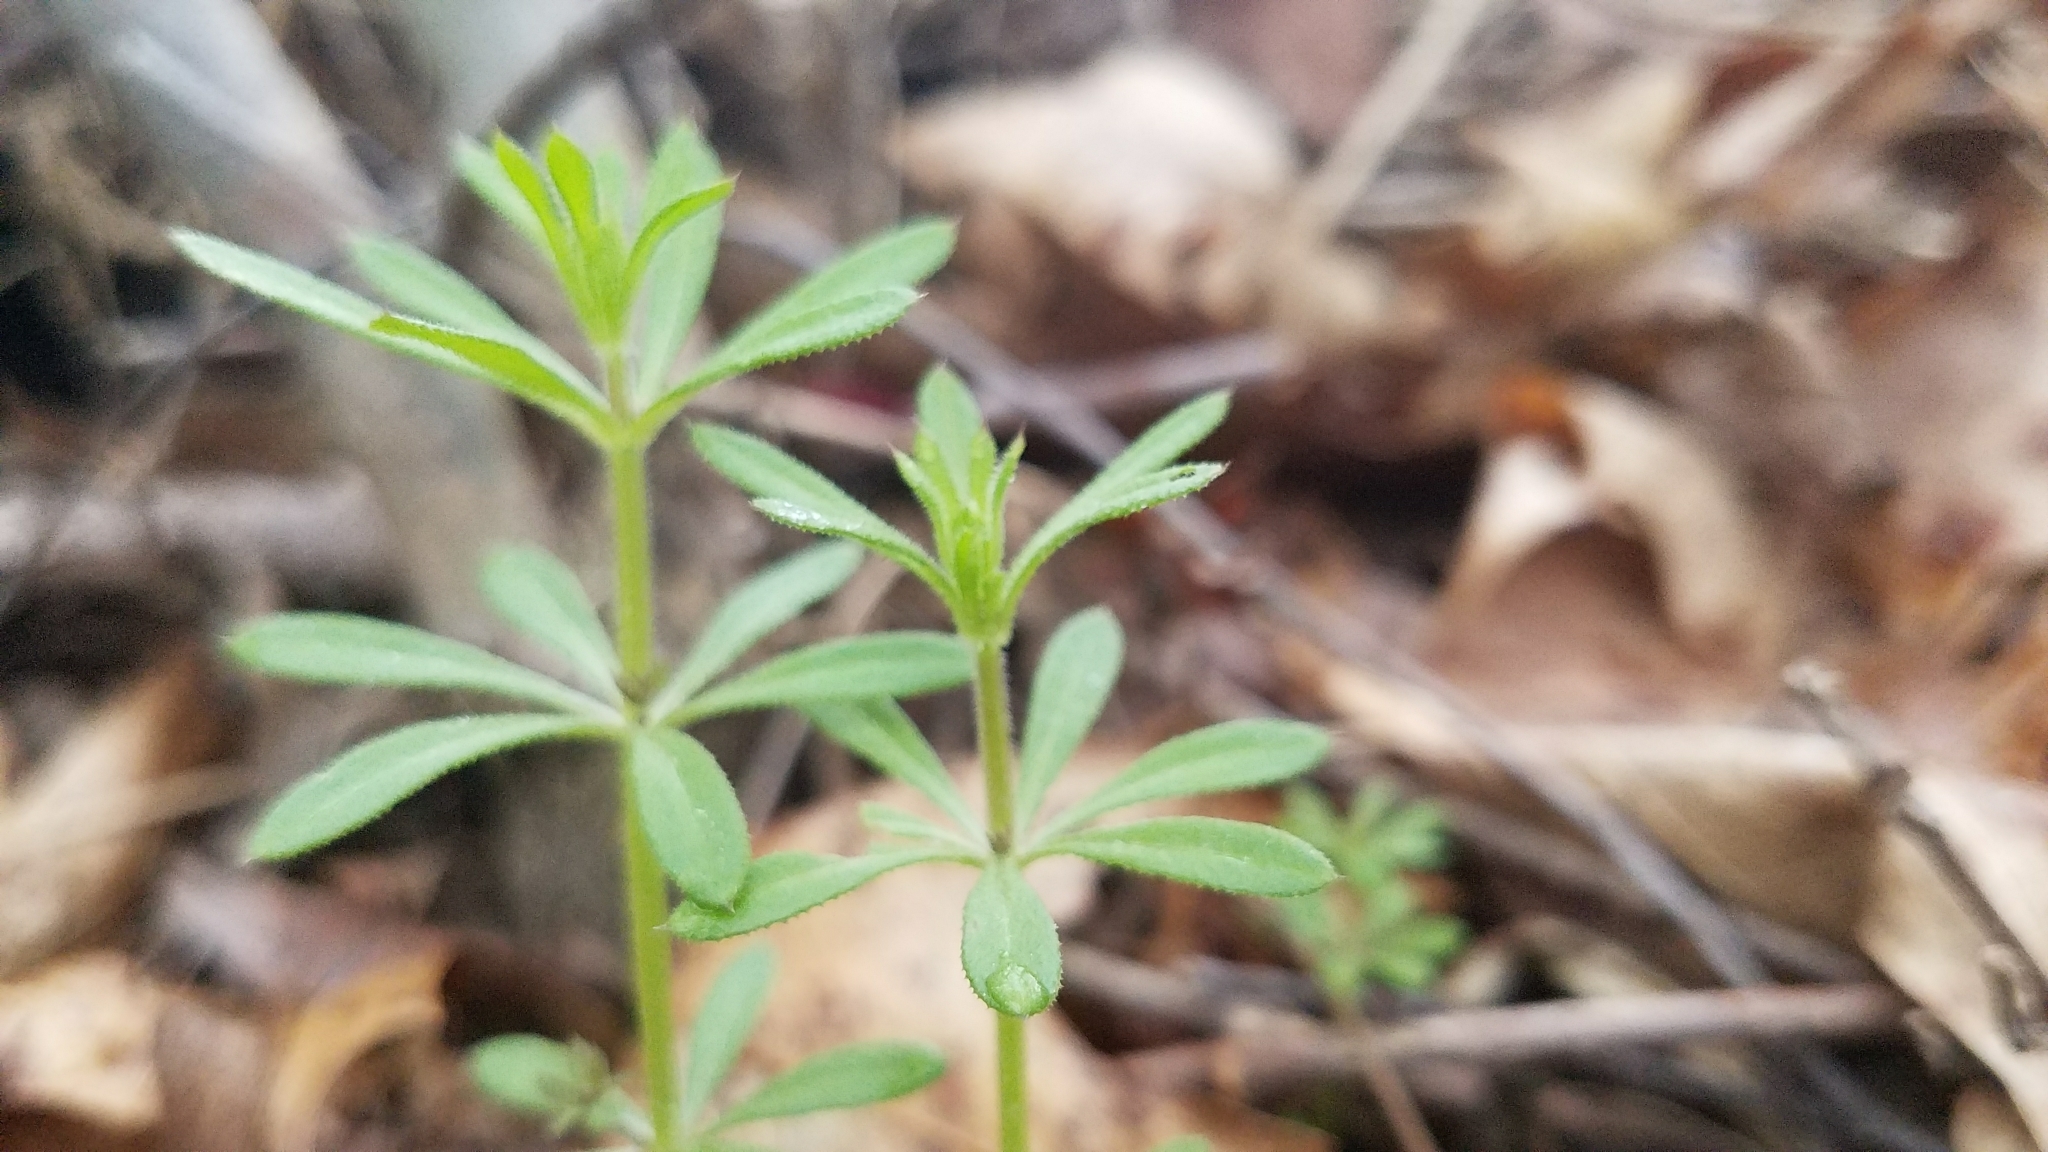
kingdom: Plantae
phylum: Tracheophyta
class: Magnoliopsida
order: Gentianales
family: Rubiaceae
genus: Galium
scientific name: Galium aparine
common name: Cleavers
